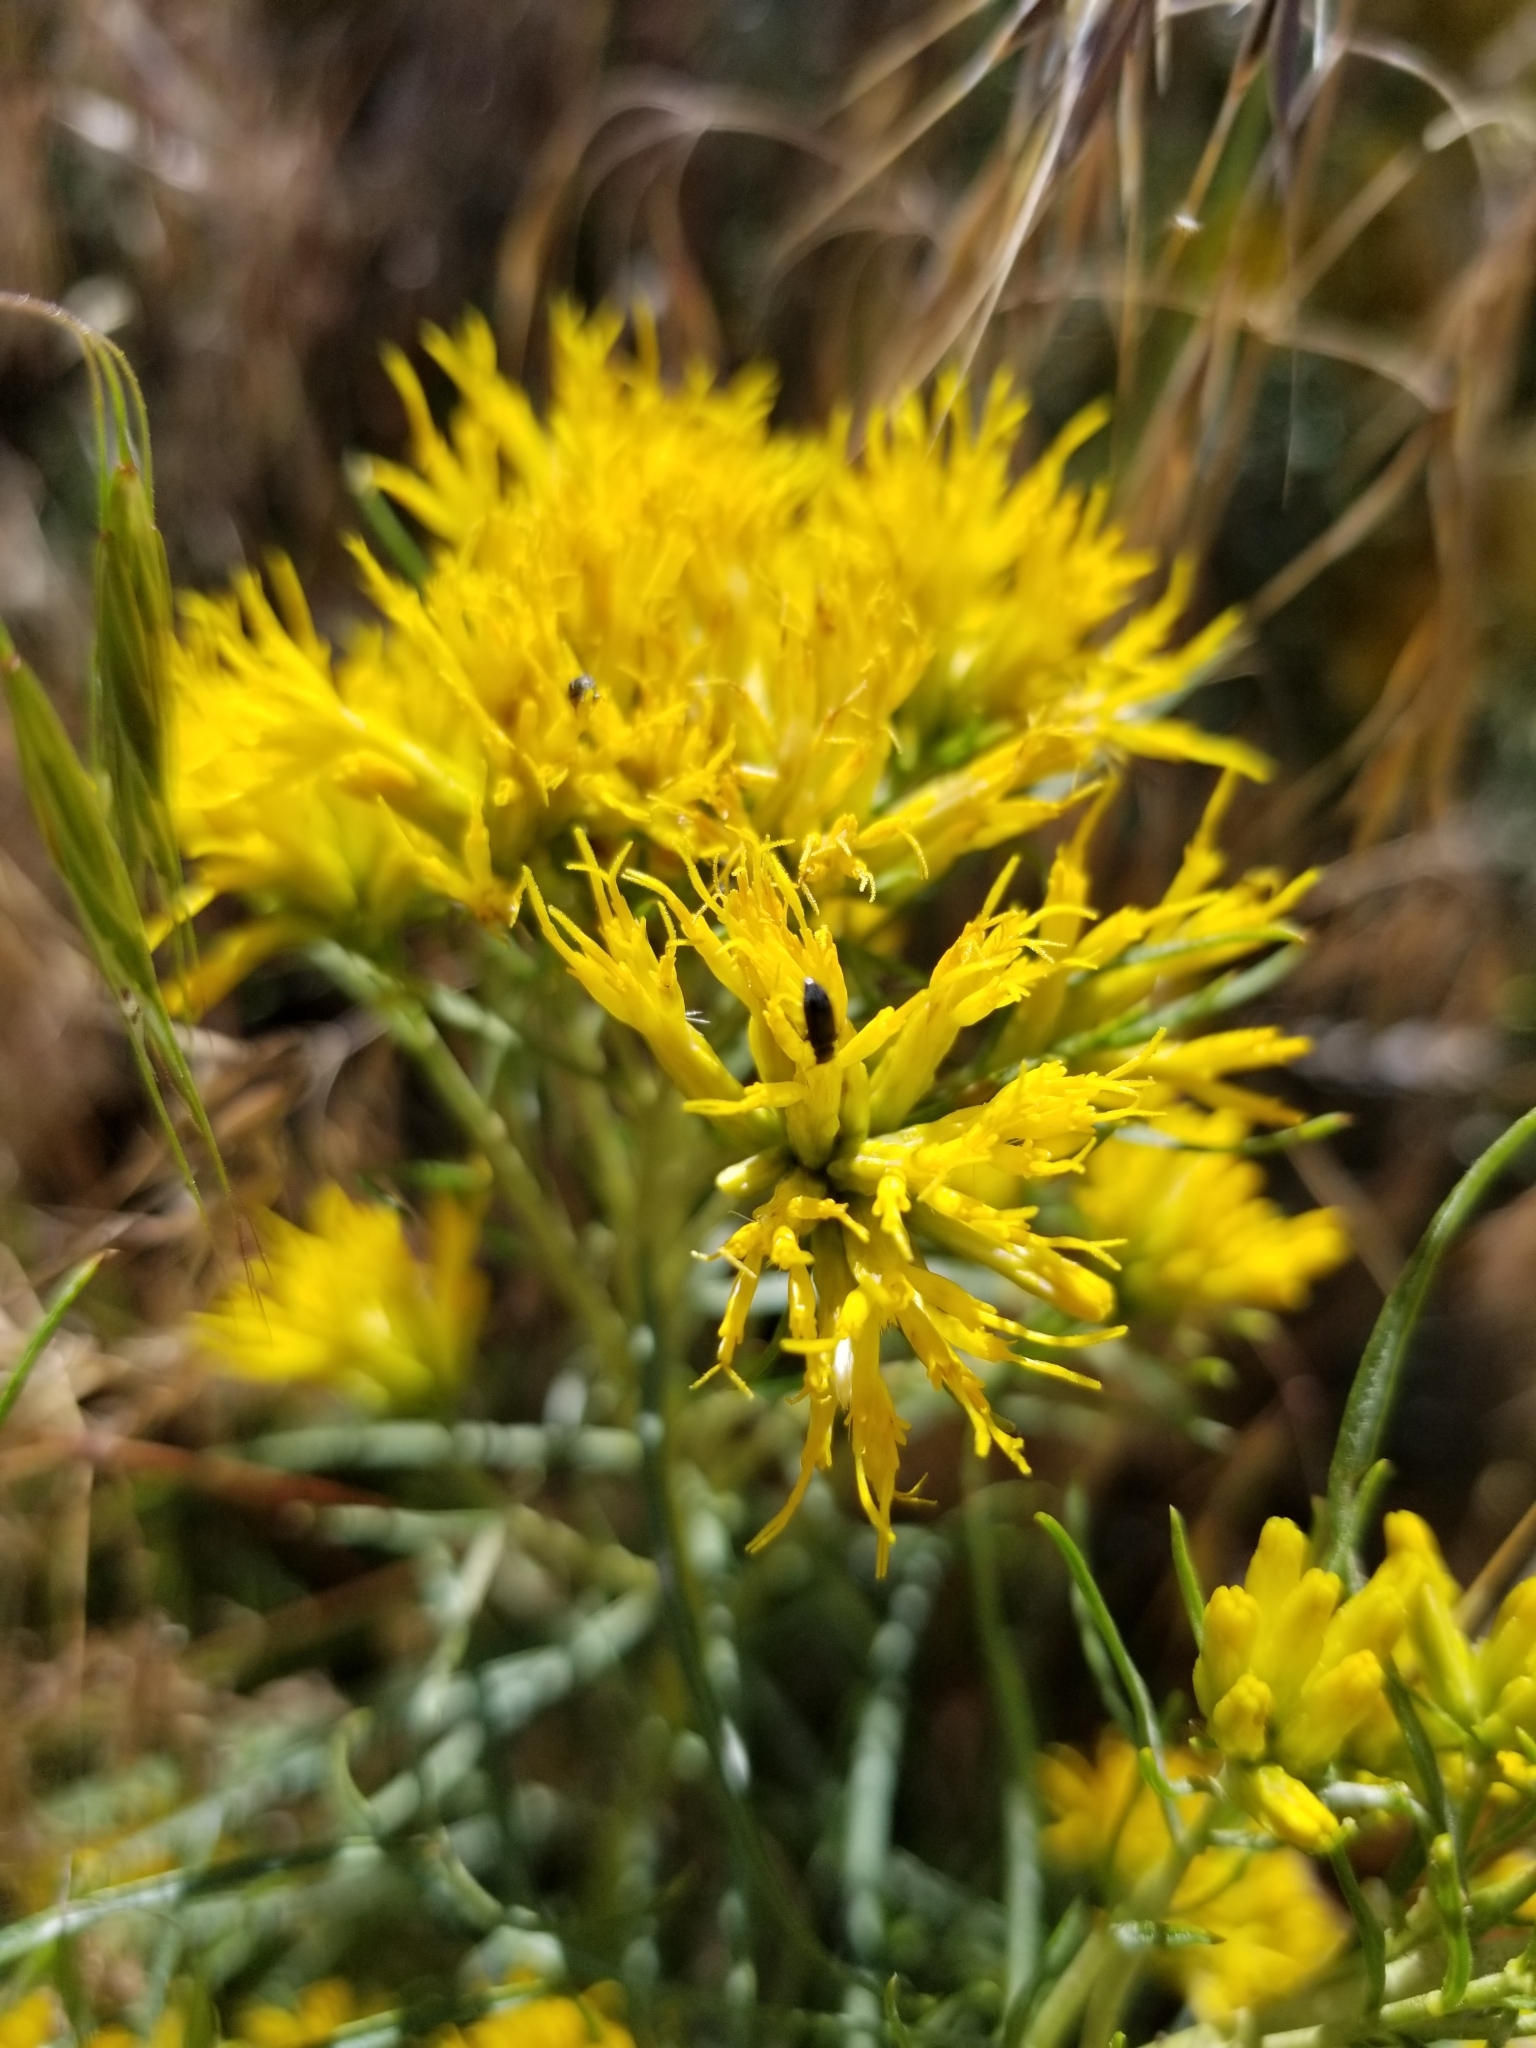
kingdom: Plantae
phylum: Tracheophyta
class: Magnoliopsida
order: Asterales
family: Asteraceae
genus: Ericameria
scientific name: Ericameria nauseosa
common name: Rubber rabbitbrush
